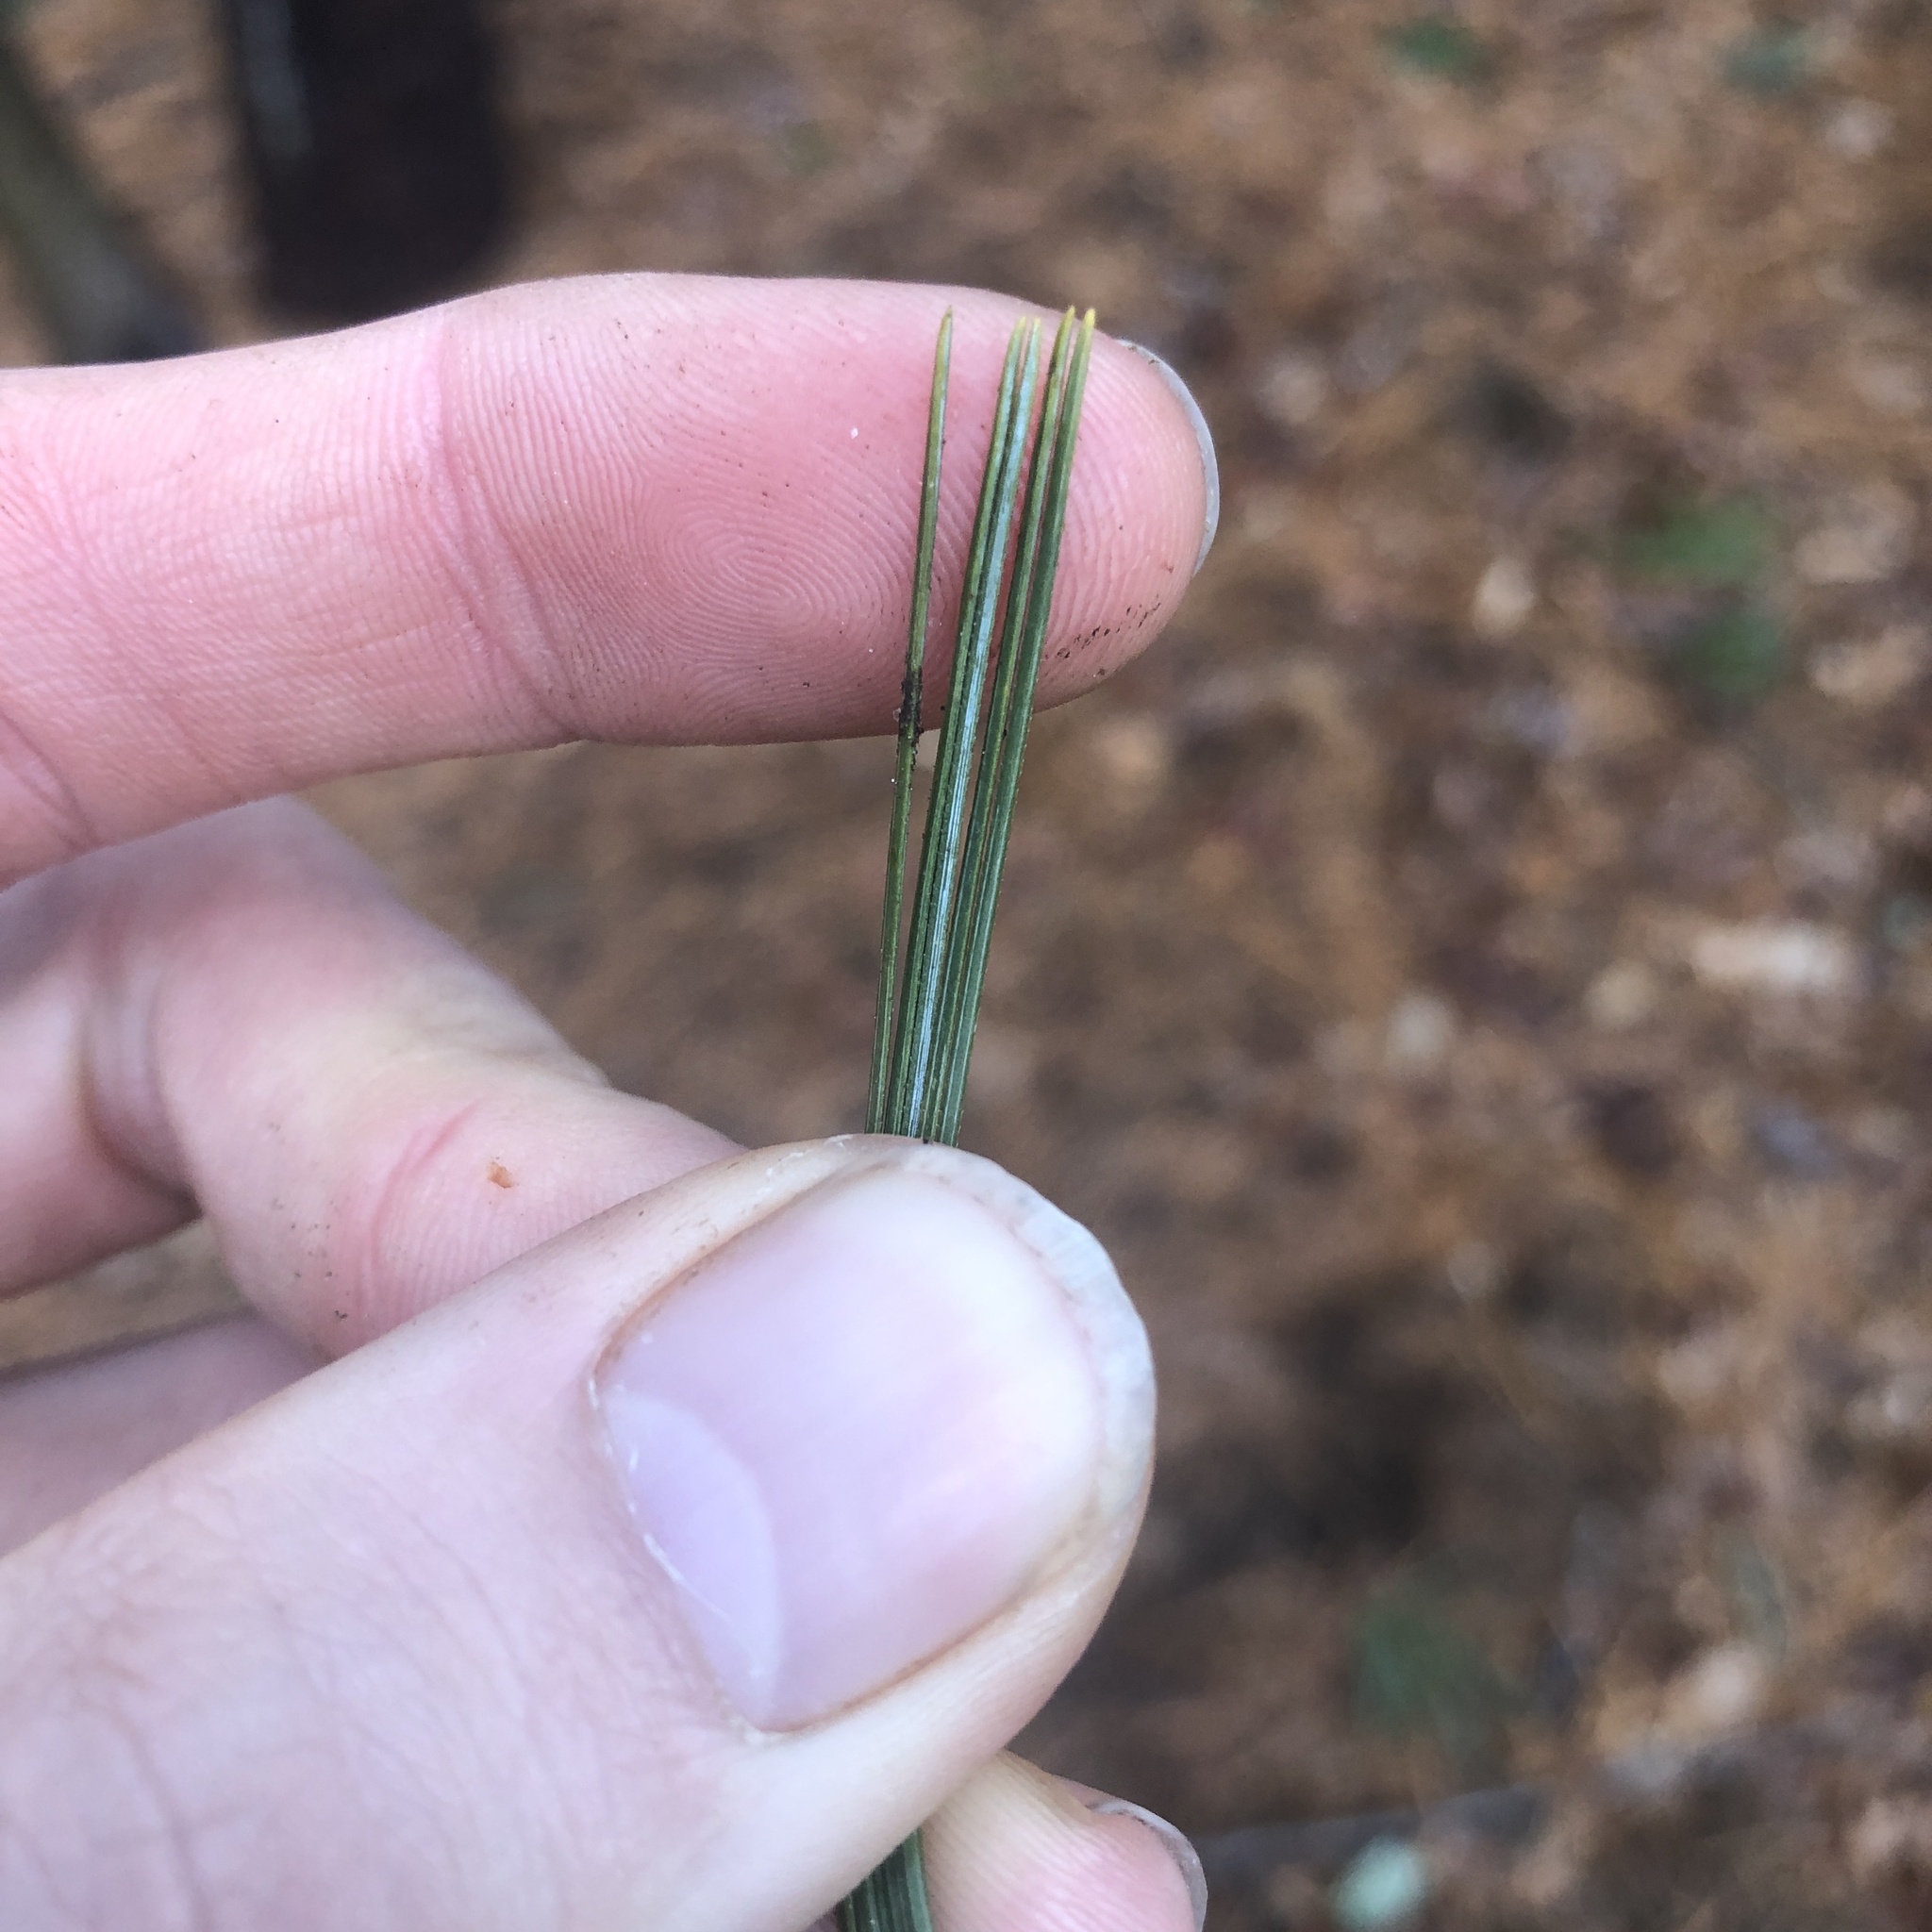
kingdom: Plantae
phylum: Tracheophyta
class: Pinopsida
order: Pinales
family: Pinaceae
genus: Pinus
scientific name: Pinus strobus
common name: Weymouth pine
